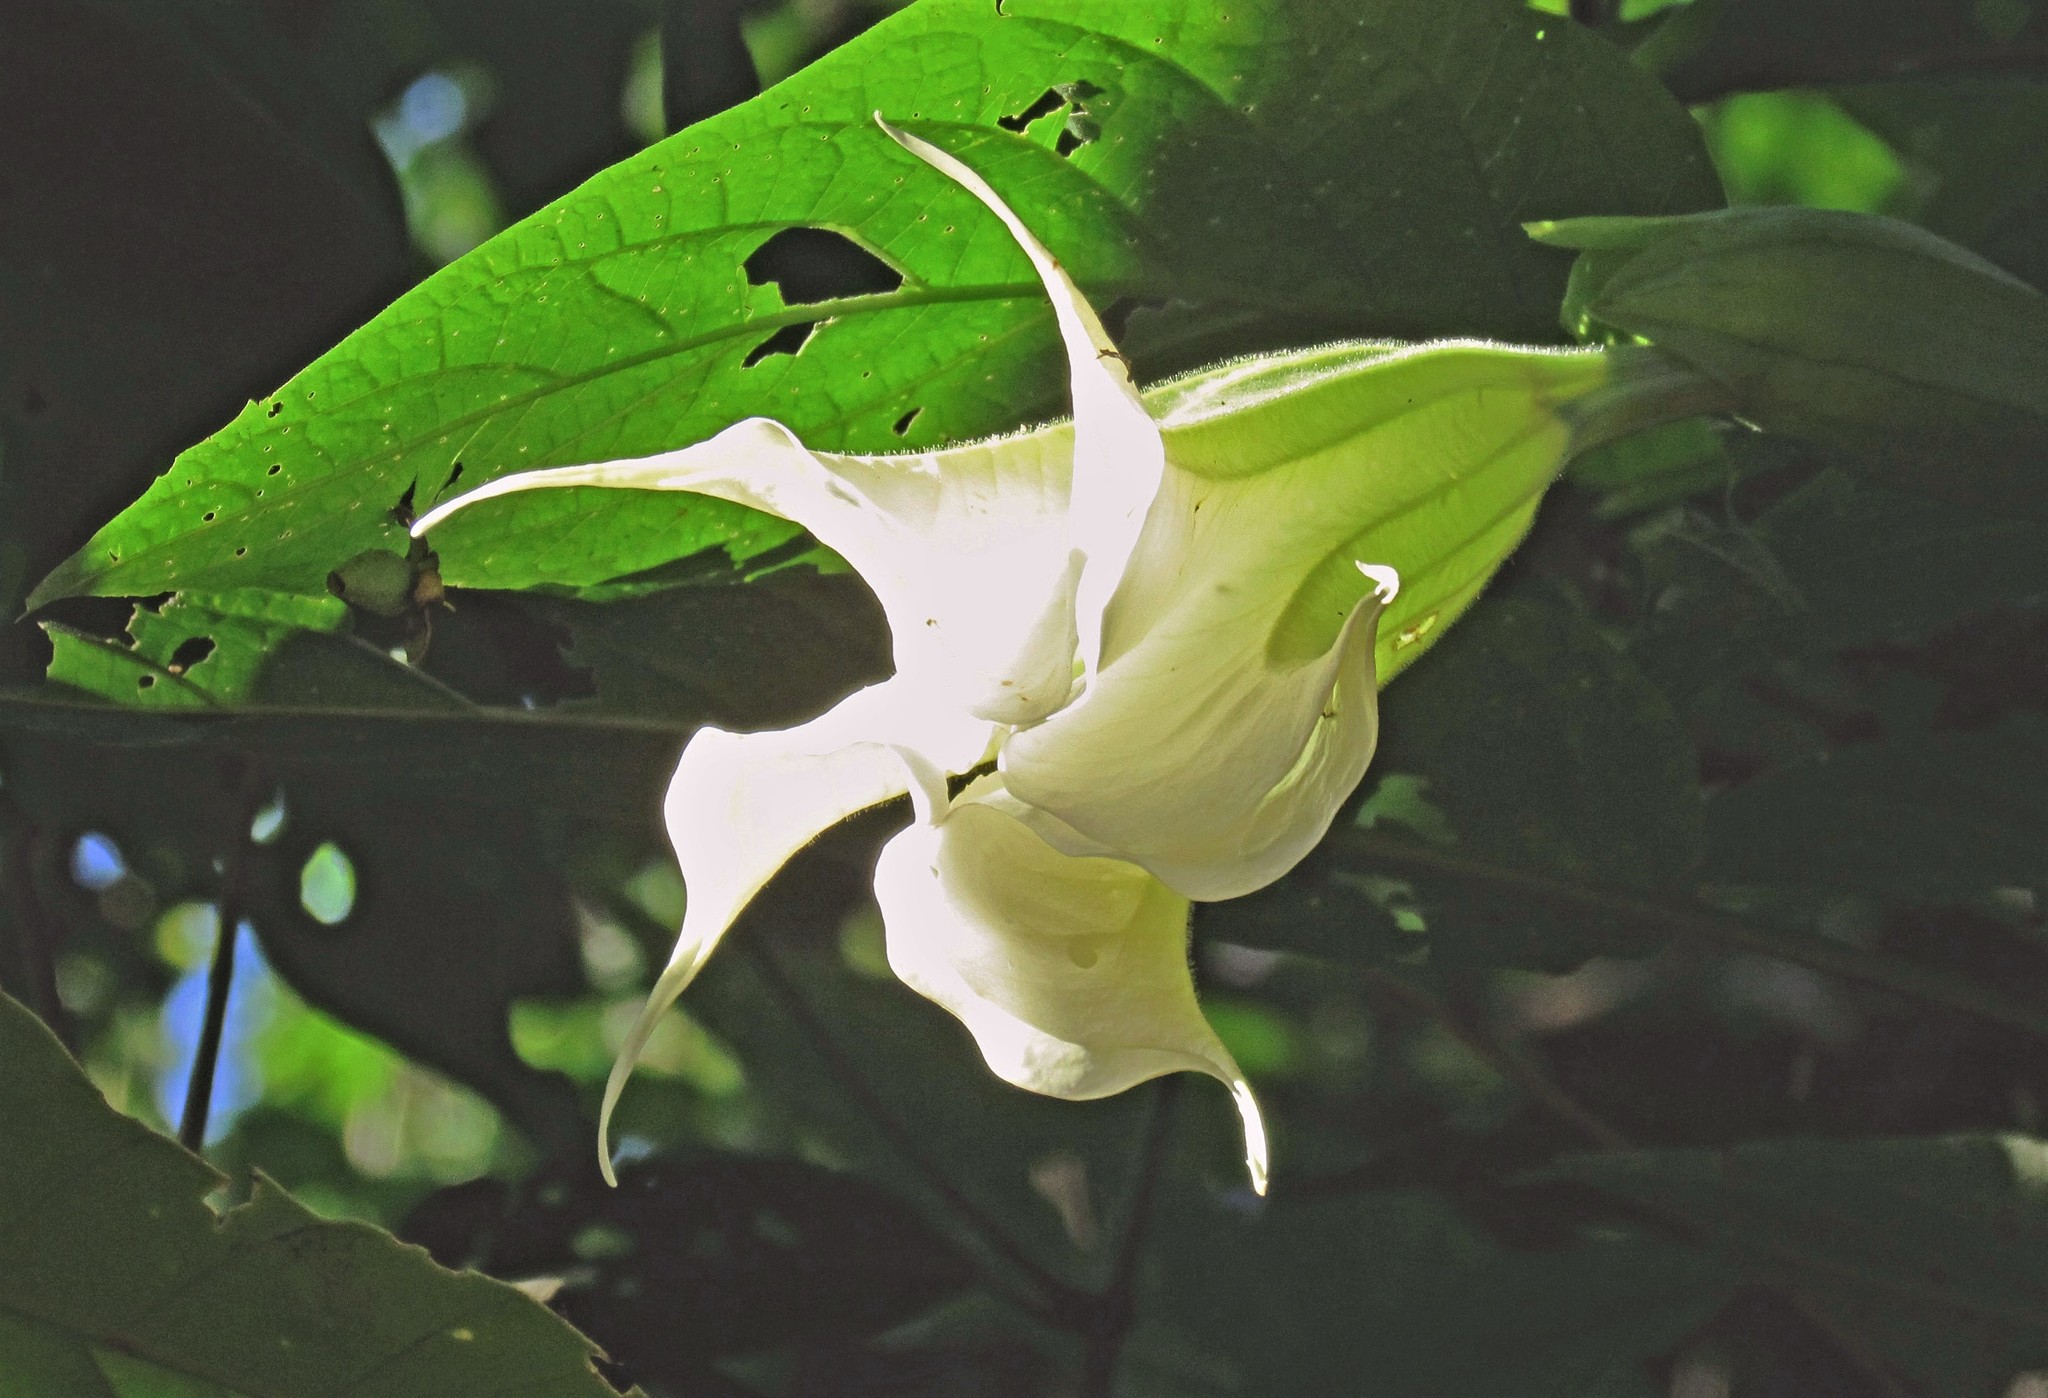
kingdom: Plantae
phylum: Tracheophyta
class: Magnoliopsida
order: Solanales
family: Solanaceae
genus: Brugmansia
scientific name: Brugmansia arborea
